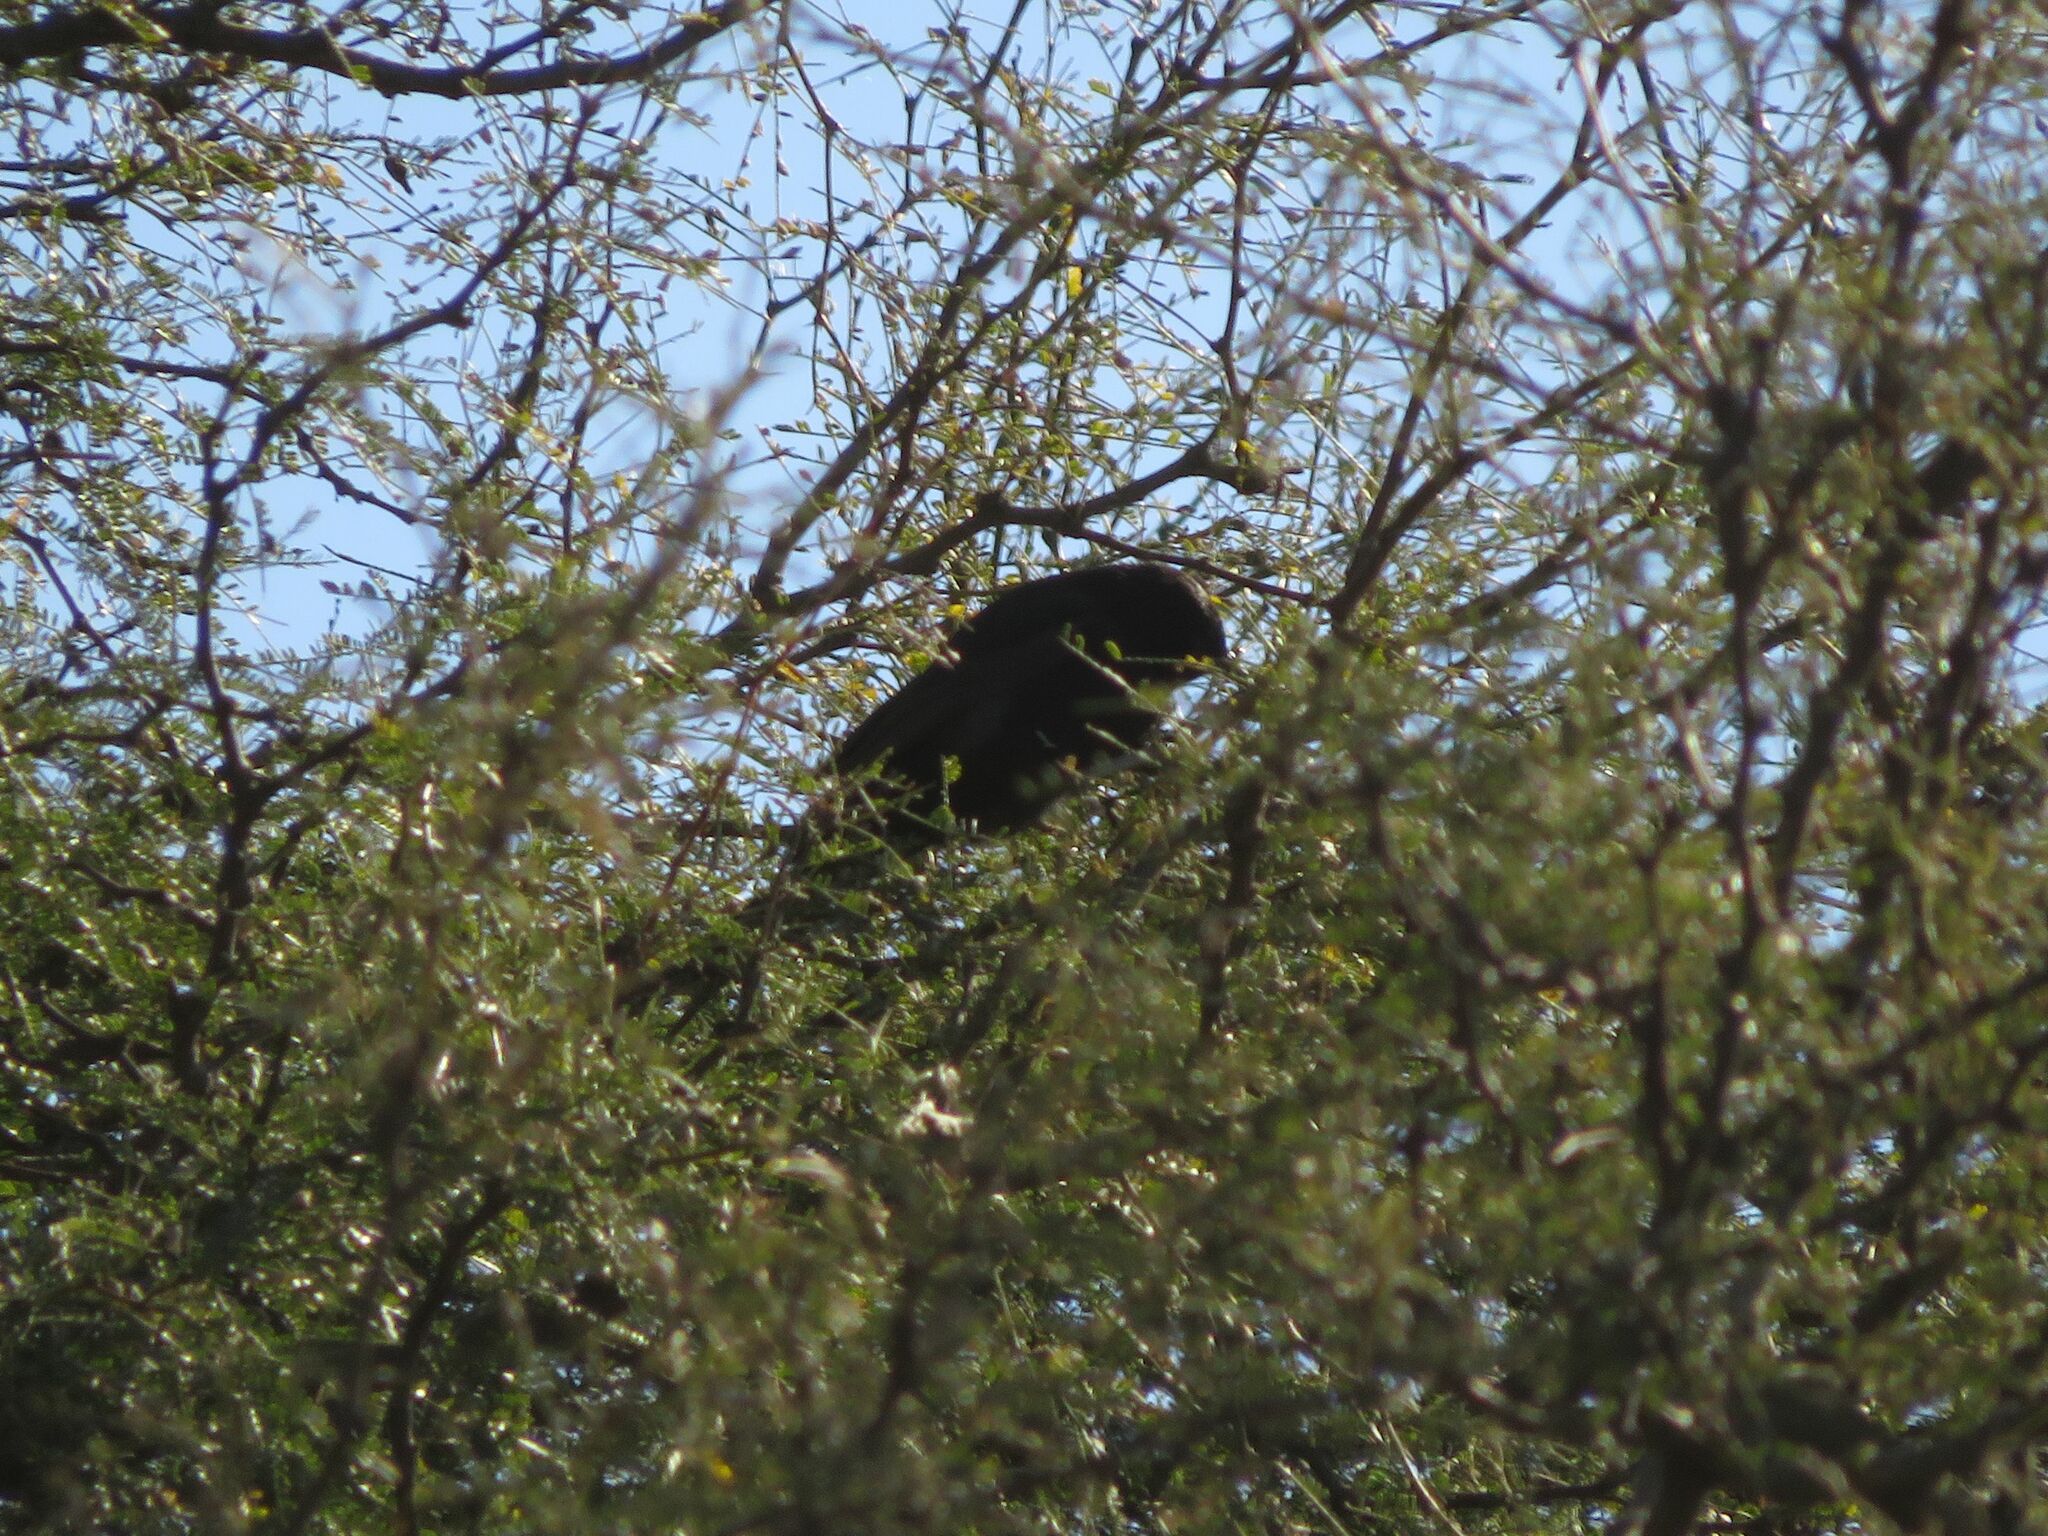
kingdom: Animalia
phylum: Chordata
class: Aves
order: Passeriformes
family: Icteridae
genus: Icterus
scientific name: Icterus cayanensis
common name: Epaulet oriole
